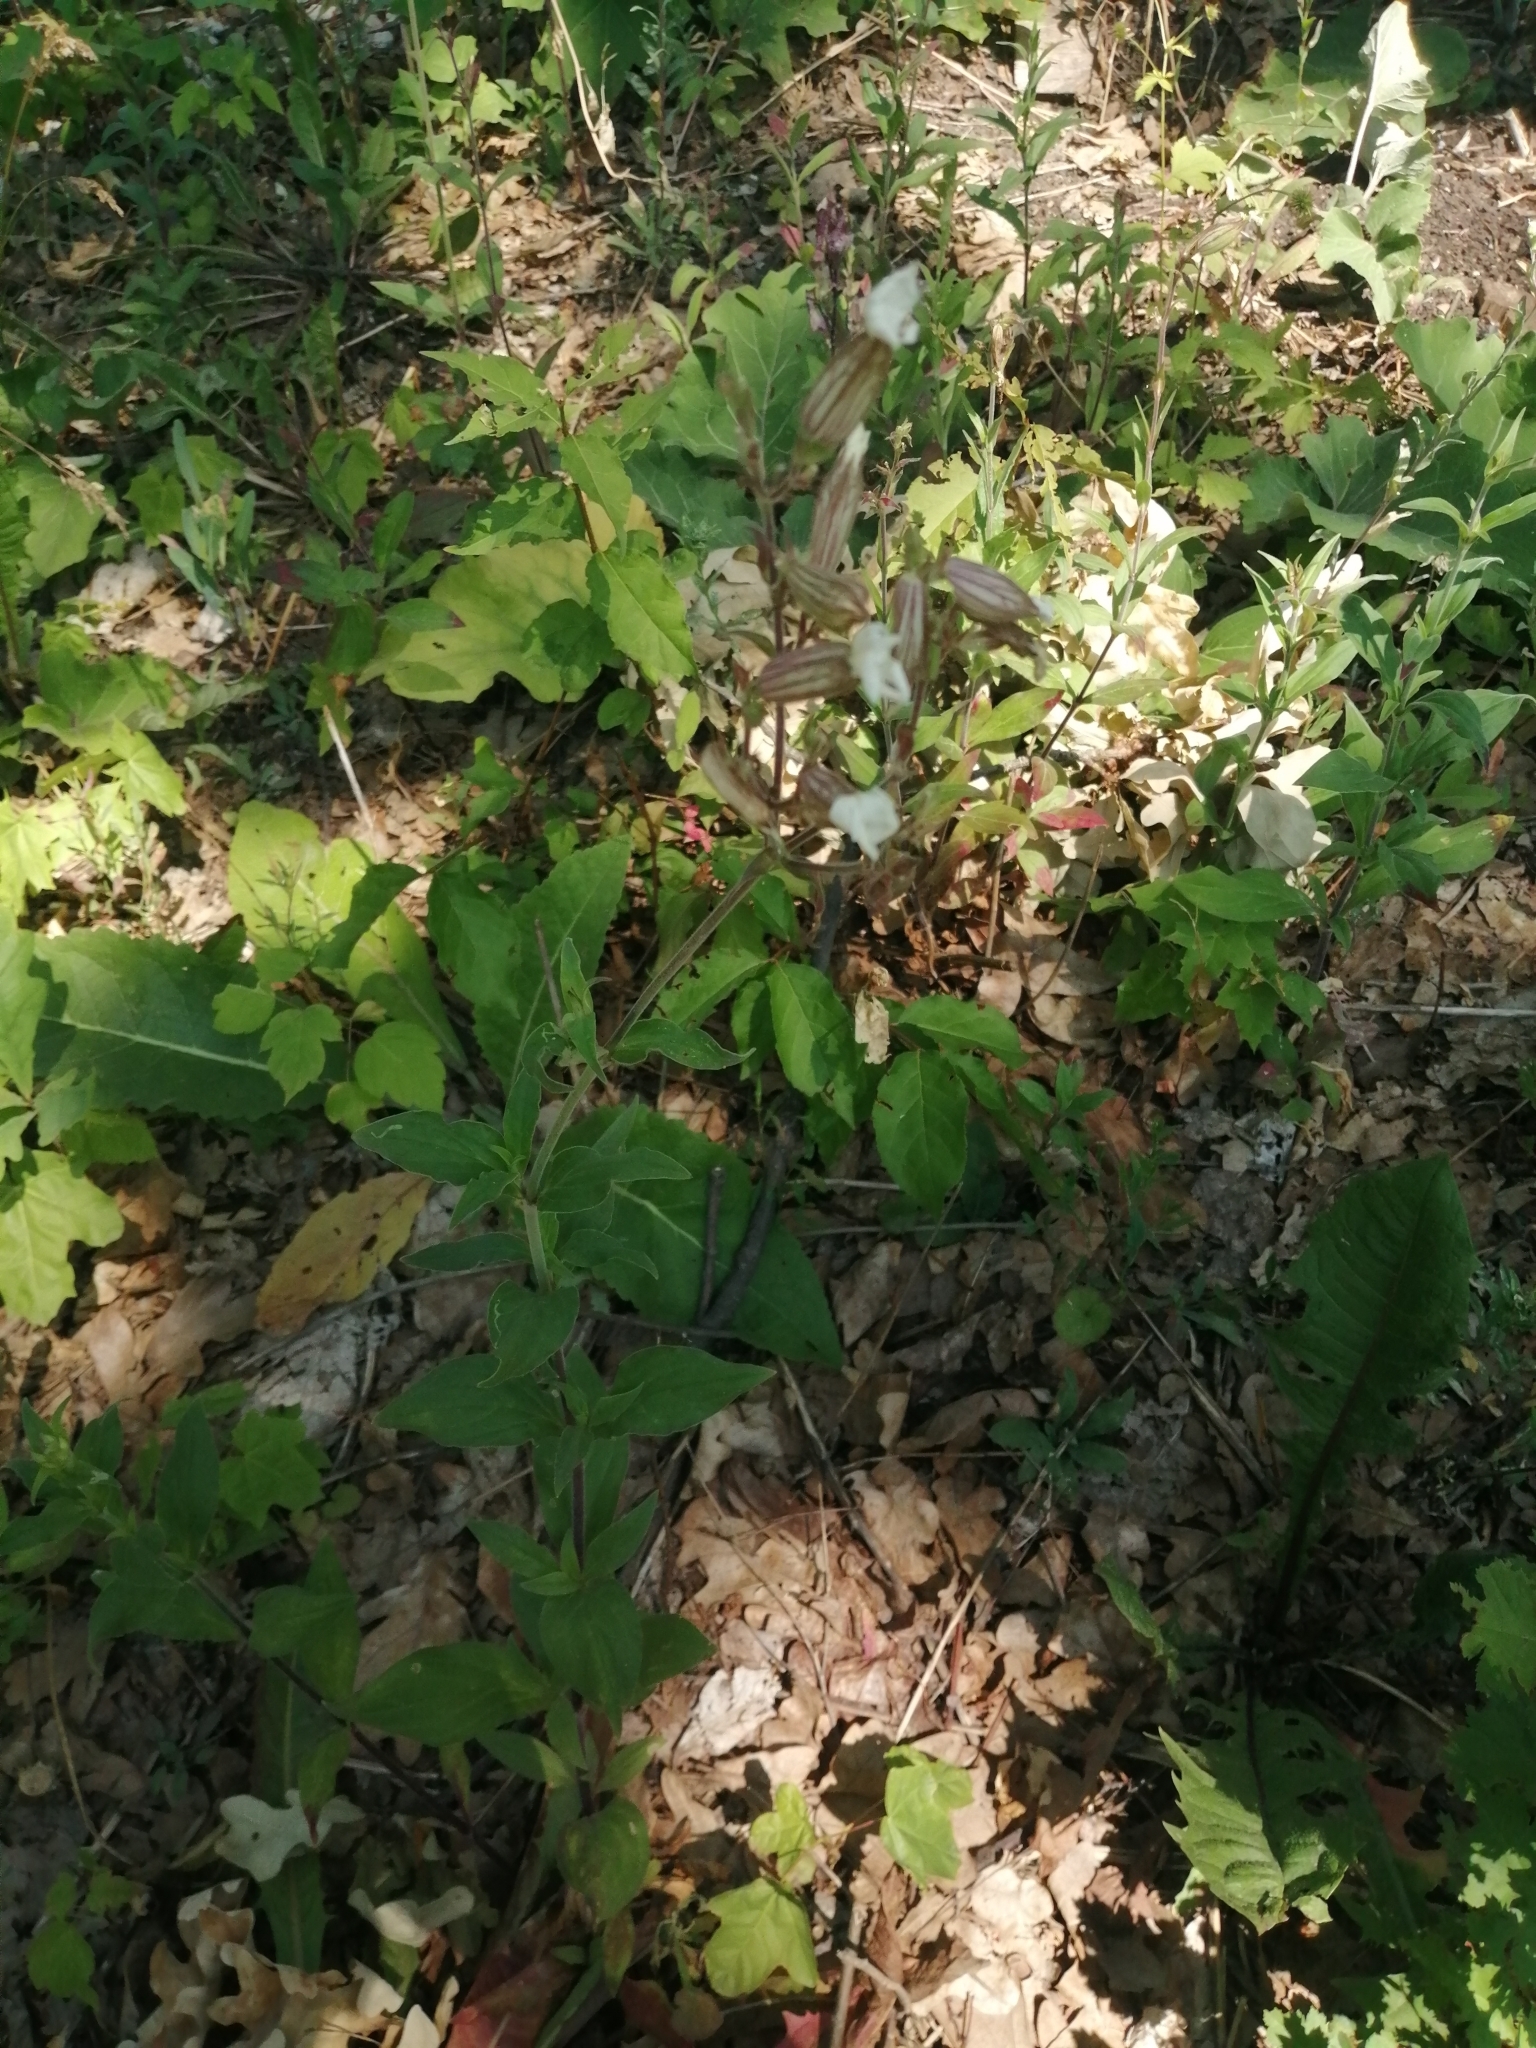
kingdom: Plantae
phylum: Tracheophyta
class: Magnoliopsida
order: Caryophyllales
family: Caryophyllaceae
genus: Silene
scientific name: Silene latifolia
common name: White campion
